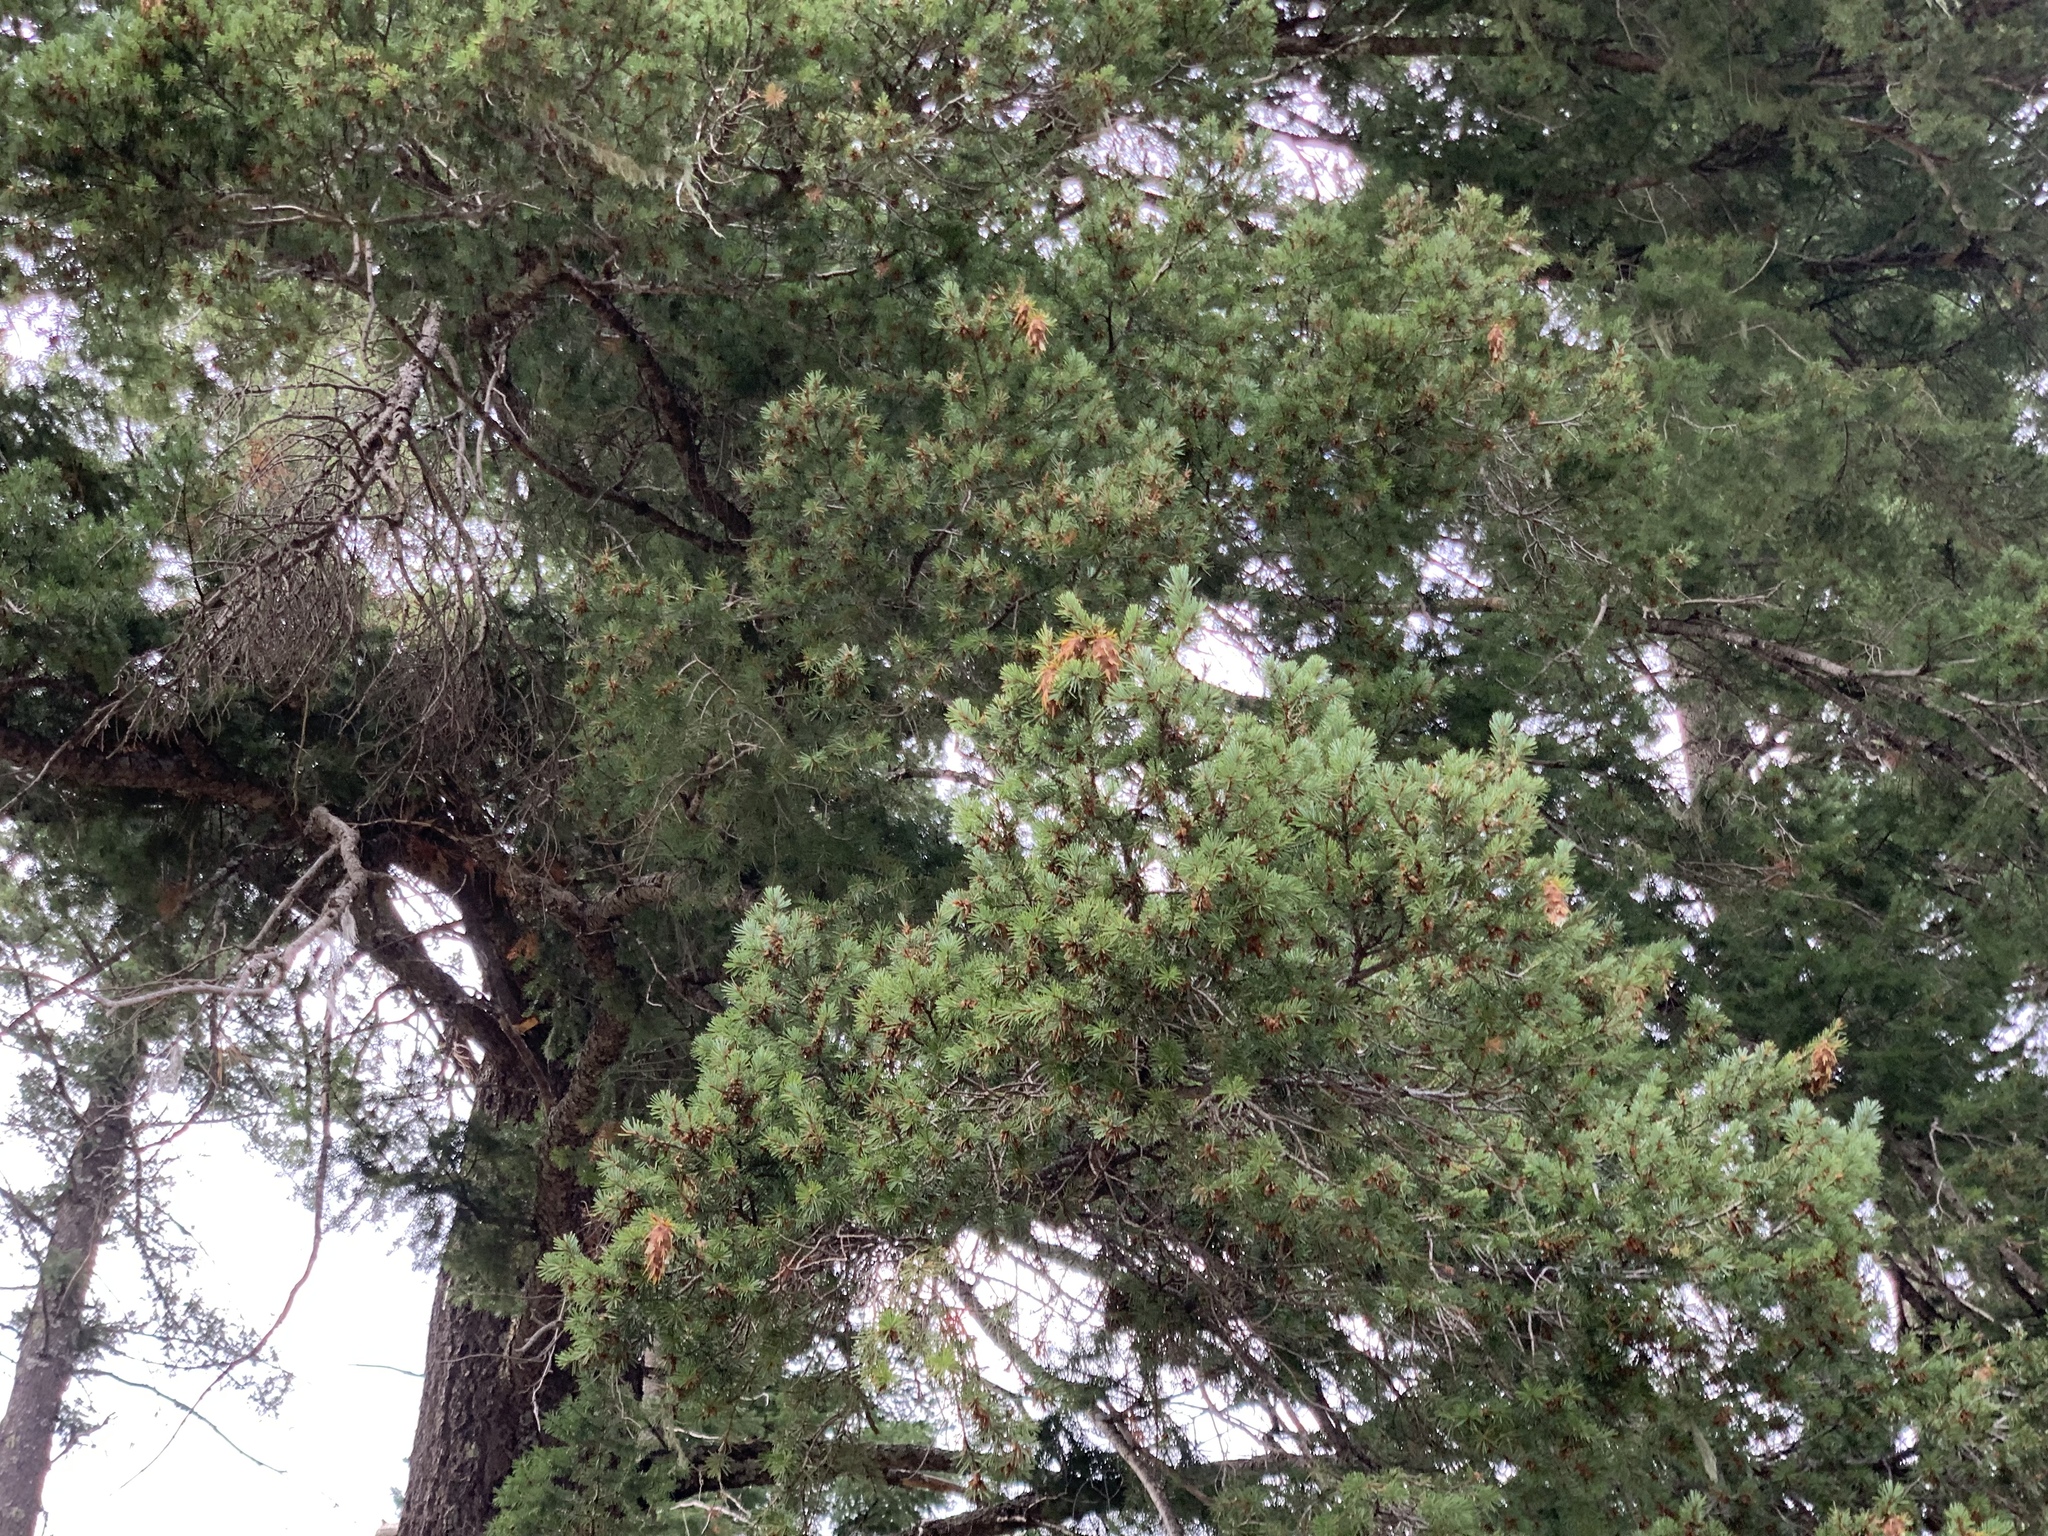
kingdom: Plantae
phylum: Tracheophyta
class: Pinopsida
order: Pinales
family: Pinaceae
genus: Pseudotsuga
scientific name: Pseudotsuga menziesii
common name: Douglas fir
